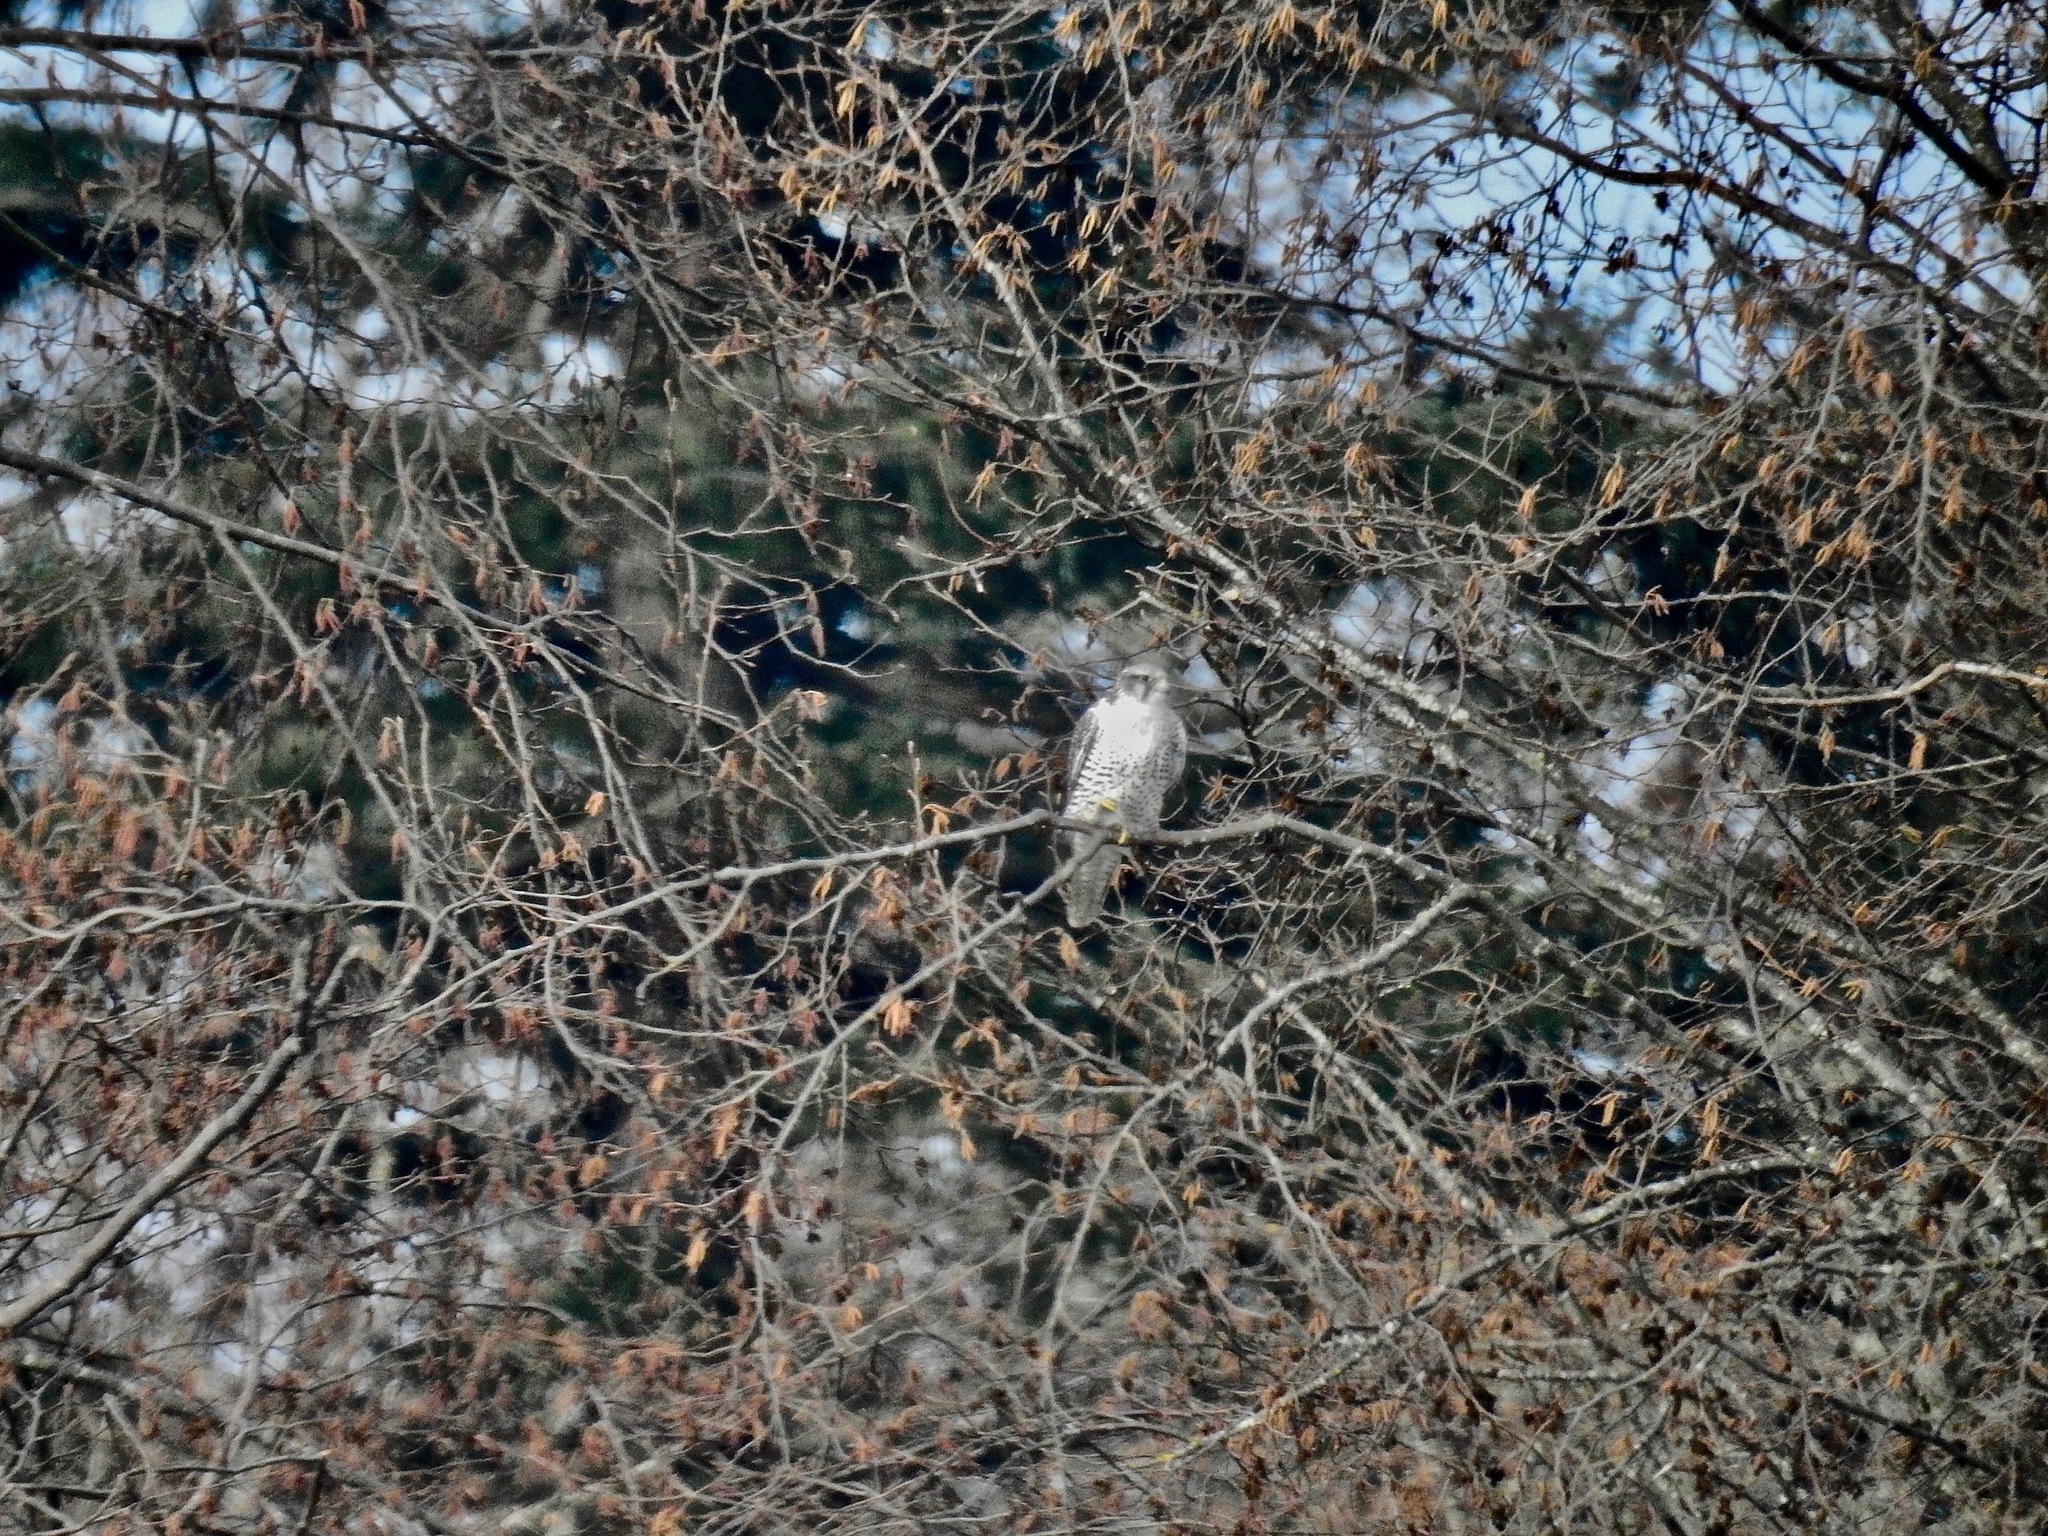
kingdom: Animalia
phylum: Chordata
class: Aves
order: Falconiformes
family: Falconidae
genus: Falco
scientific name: Falco rusticolus
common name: Gyrfalcon
